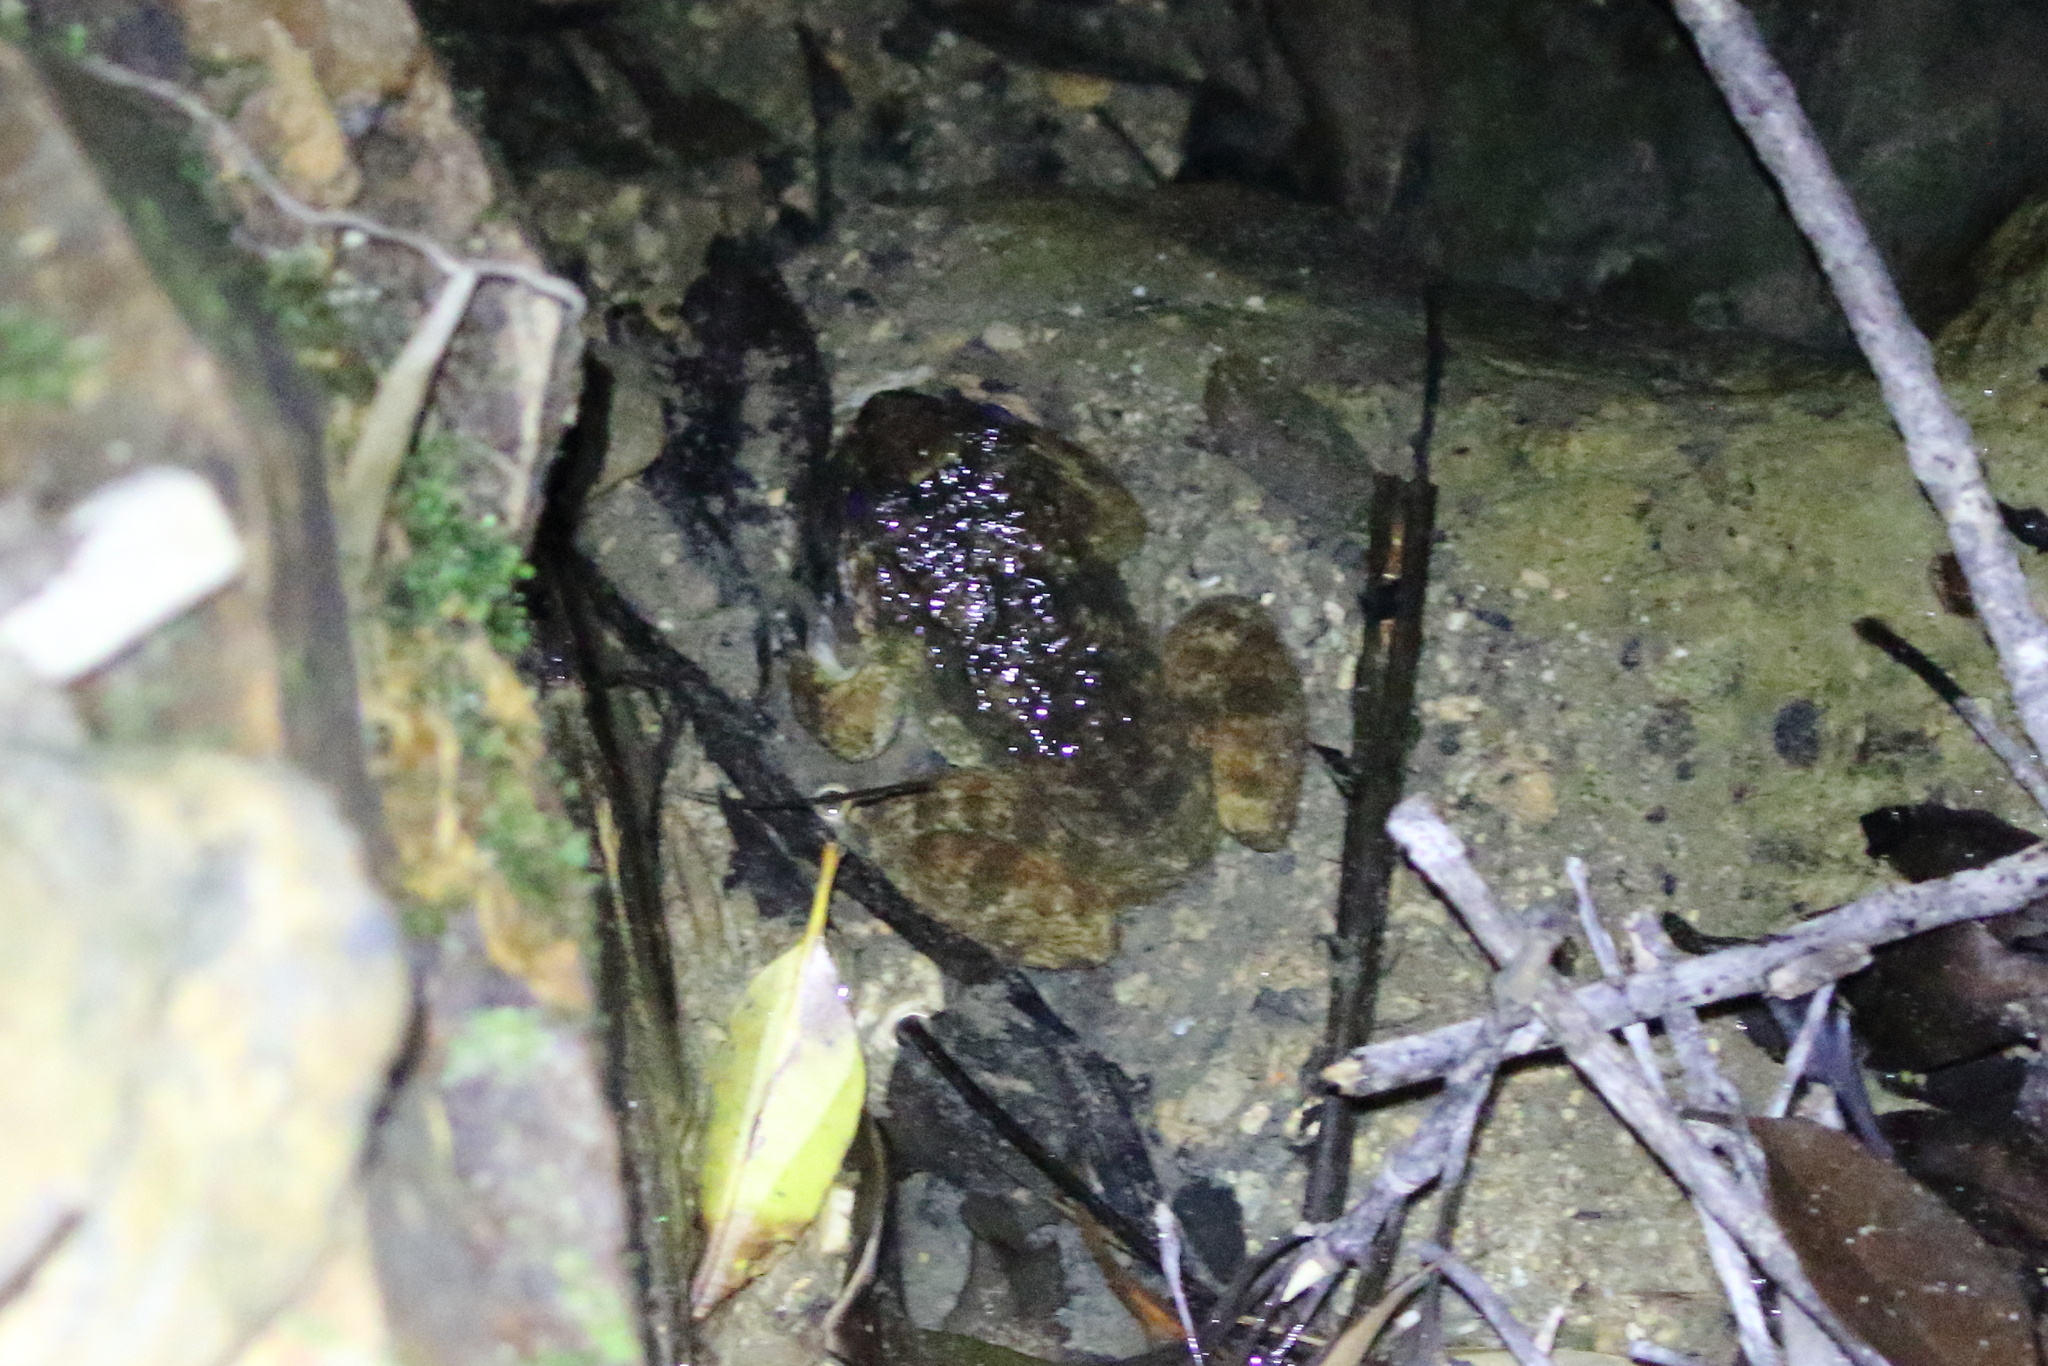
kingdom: Animalia
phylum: Chordata
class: Amphibia
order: Anura
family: Dicroglossidae
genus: Limnonectes
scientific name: Limnonectes namiyei
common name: Namie's frog
